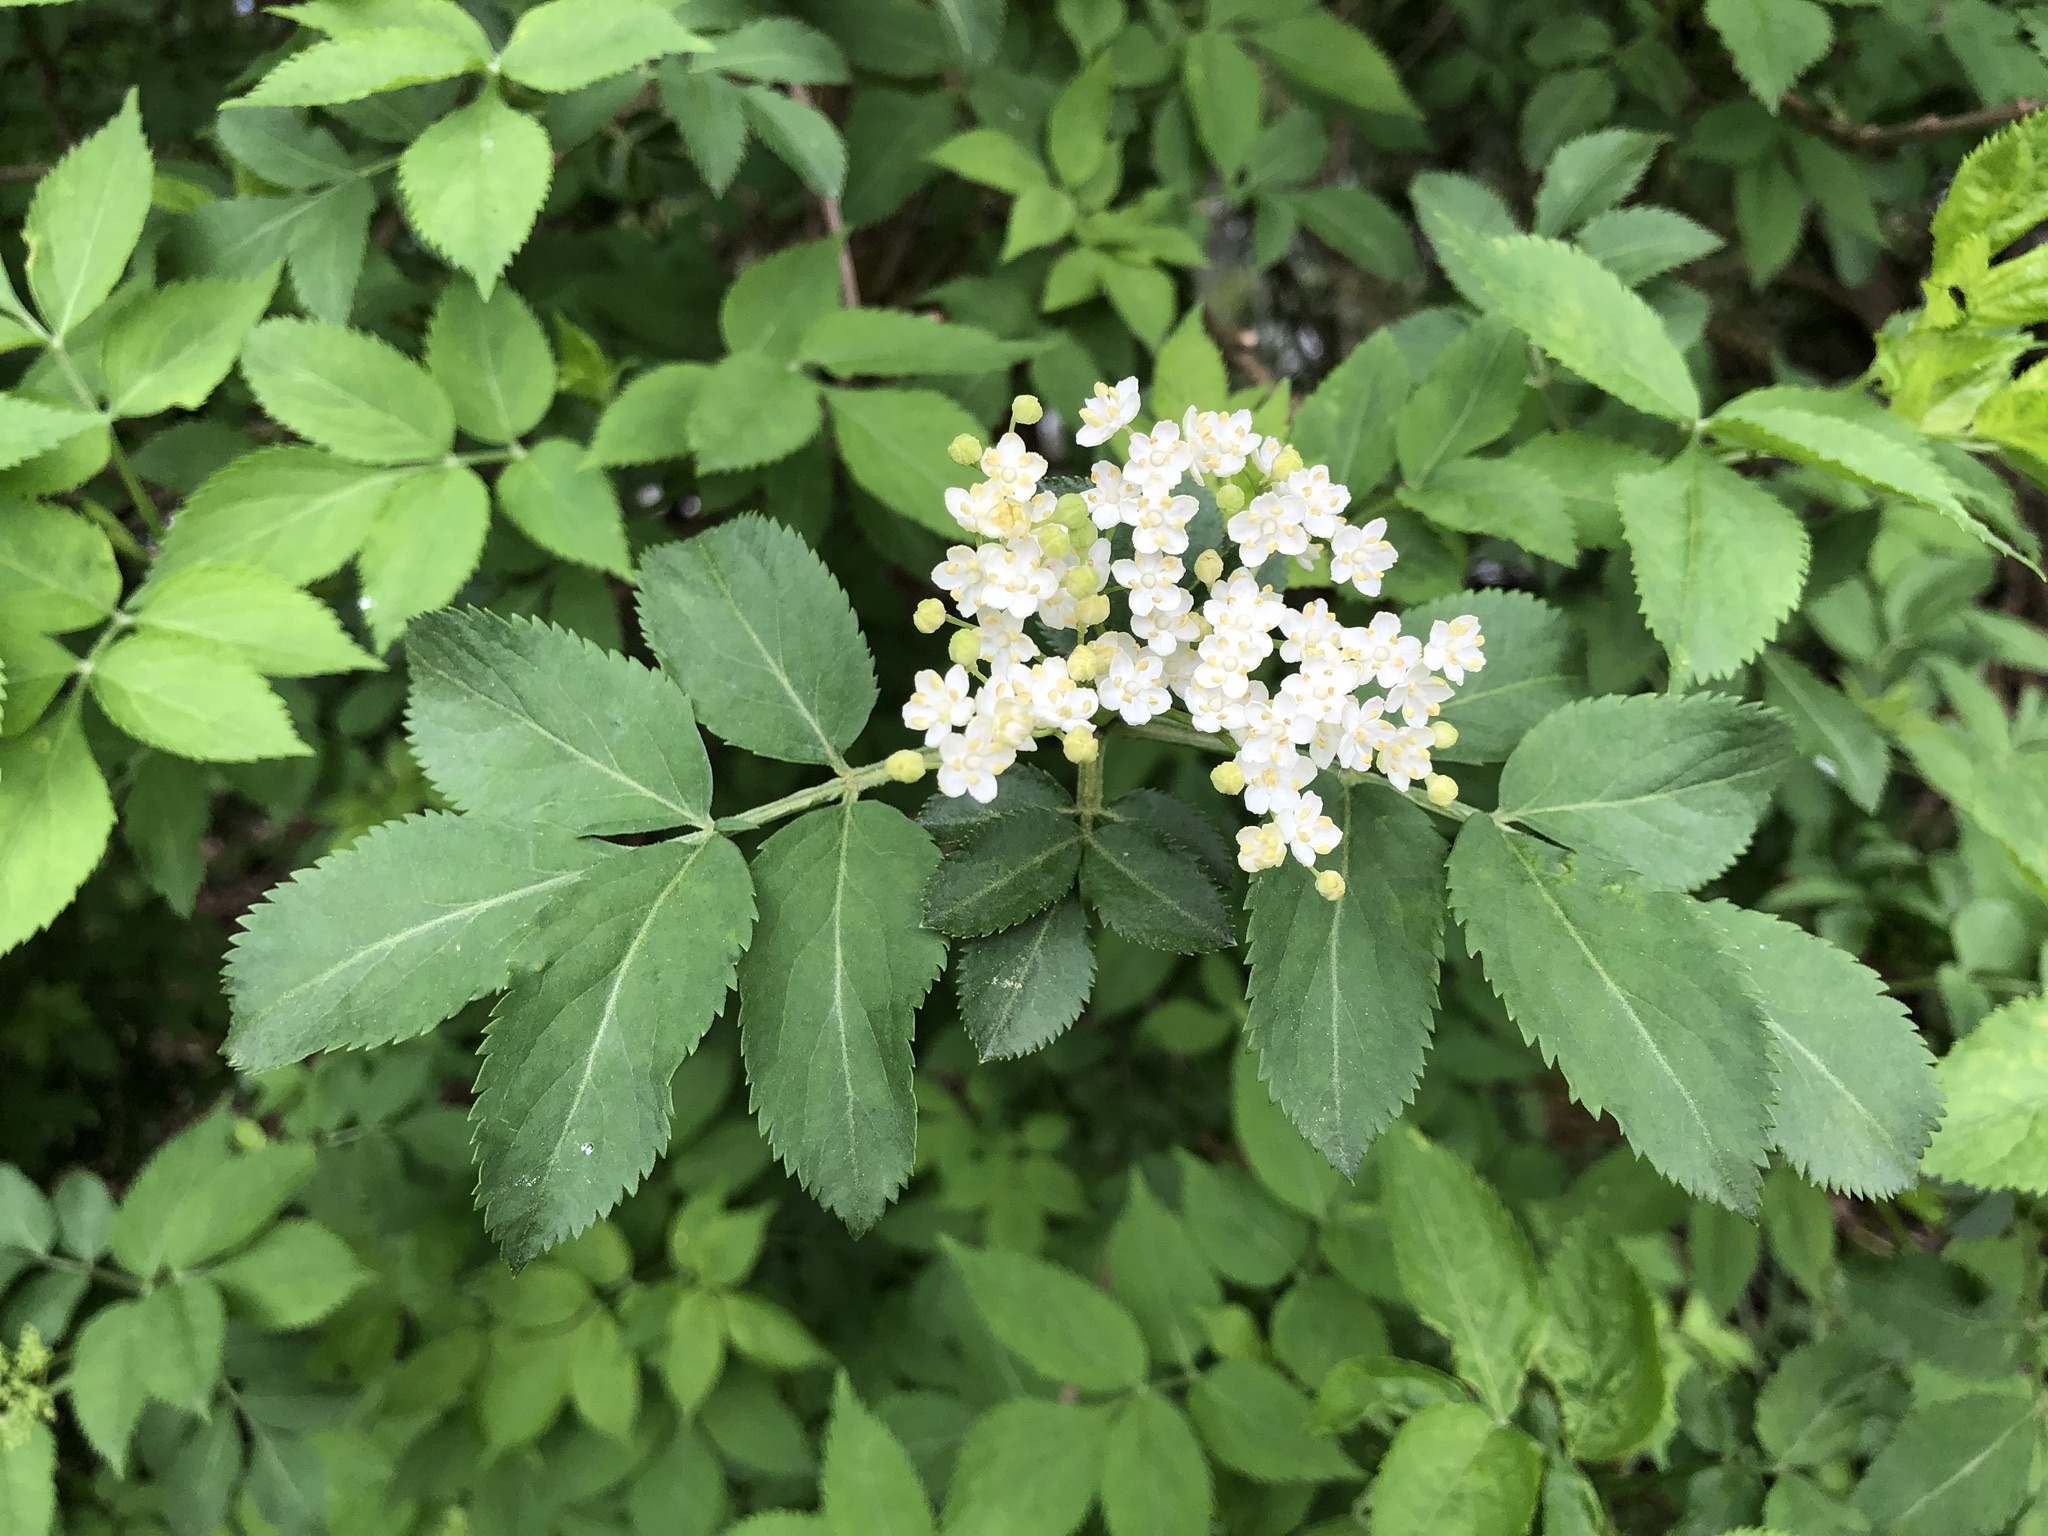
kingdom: Plantae
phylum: Tracheophyta
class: Magnoliopsida
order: Dipsacales
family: Viburnaceae
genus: Sambucus
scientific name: Sambucus nigra
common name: Elder
